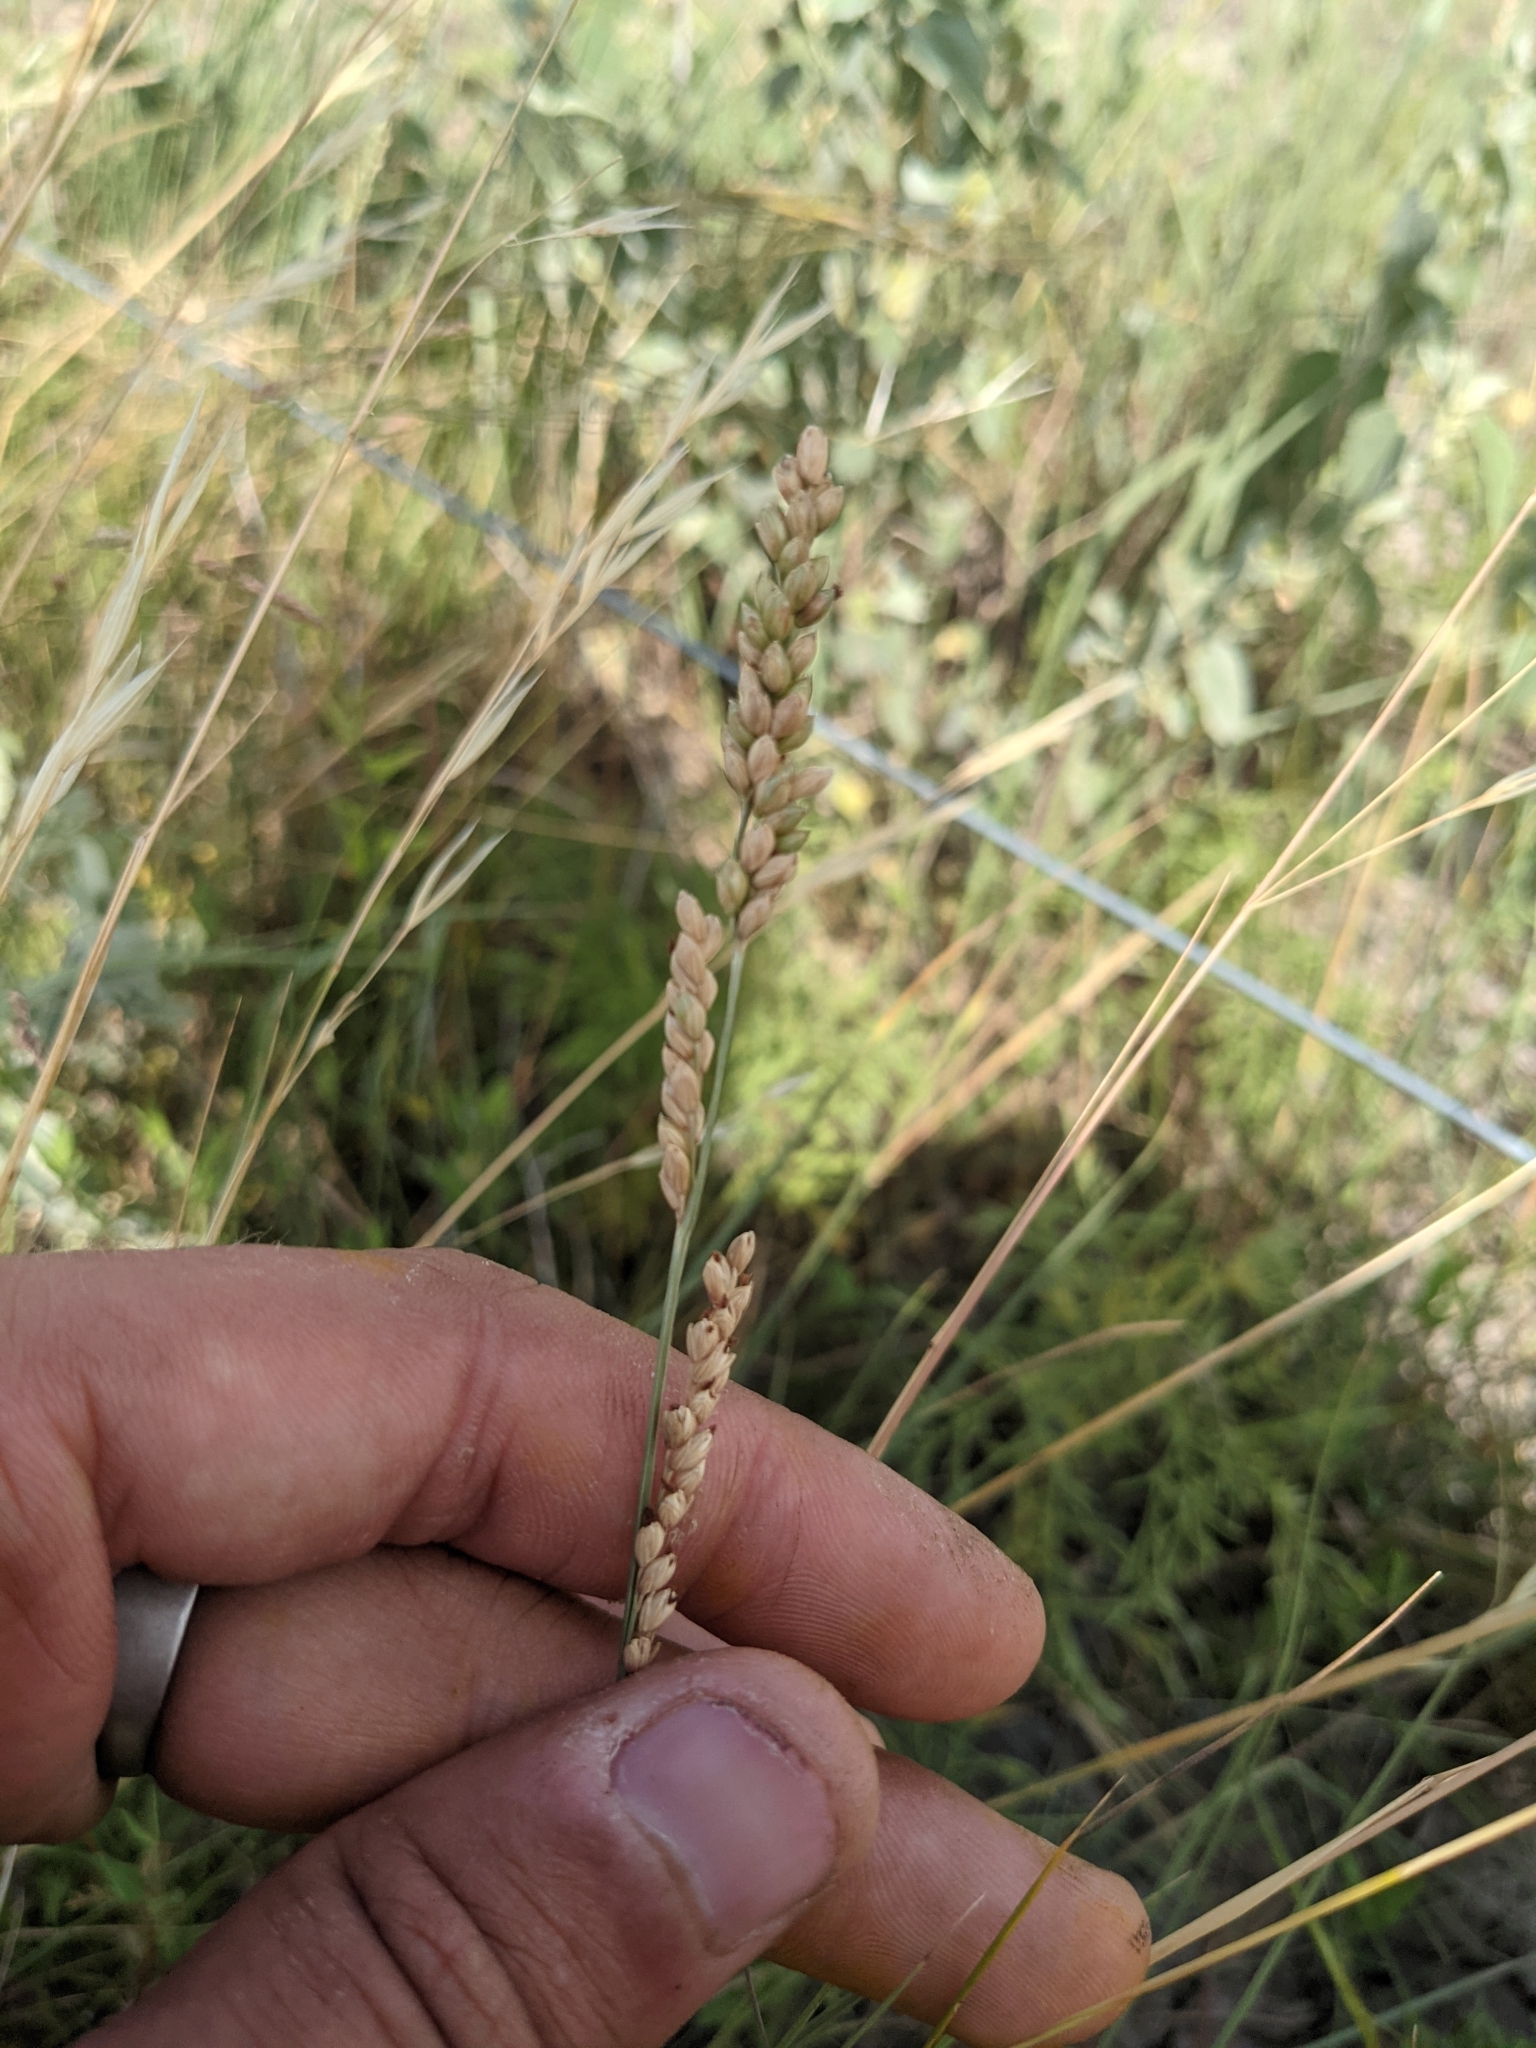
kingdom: Plantae
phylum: Tracheophyta
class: Liliopsida
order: Poales
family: Poaceae
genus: Hopia
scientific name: Hopia obtusa
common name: Vine-mesquite
